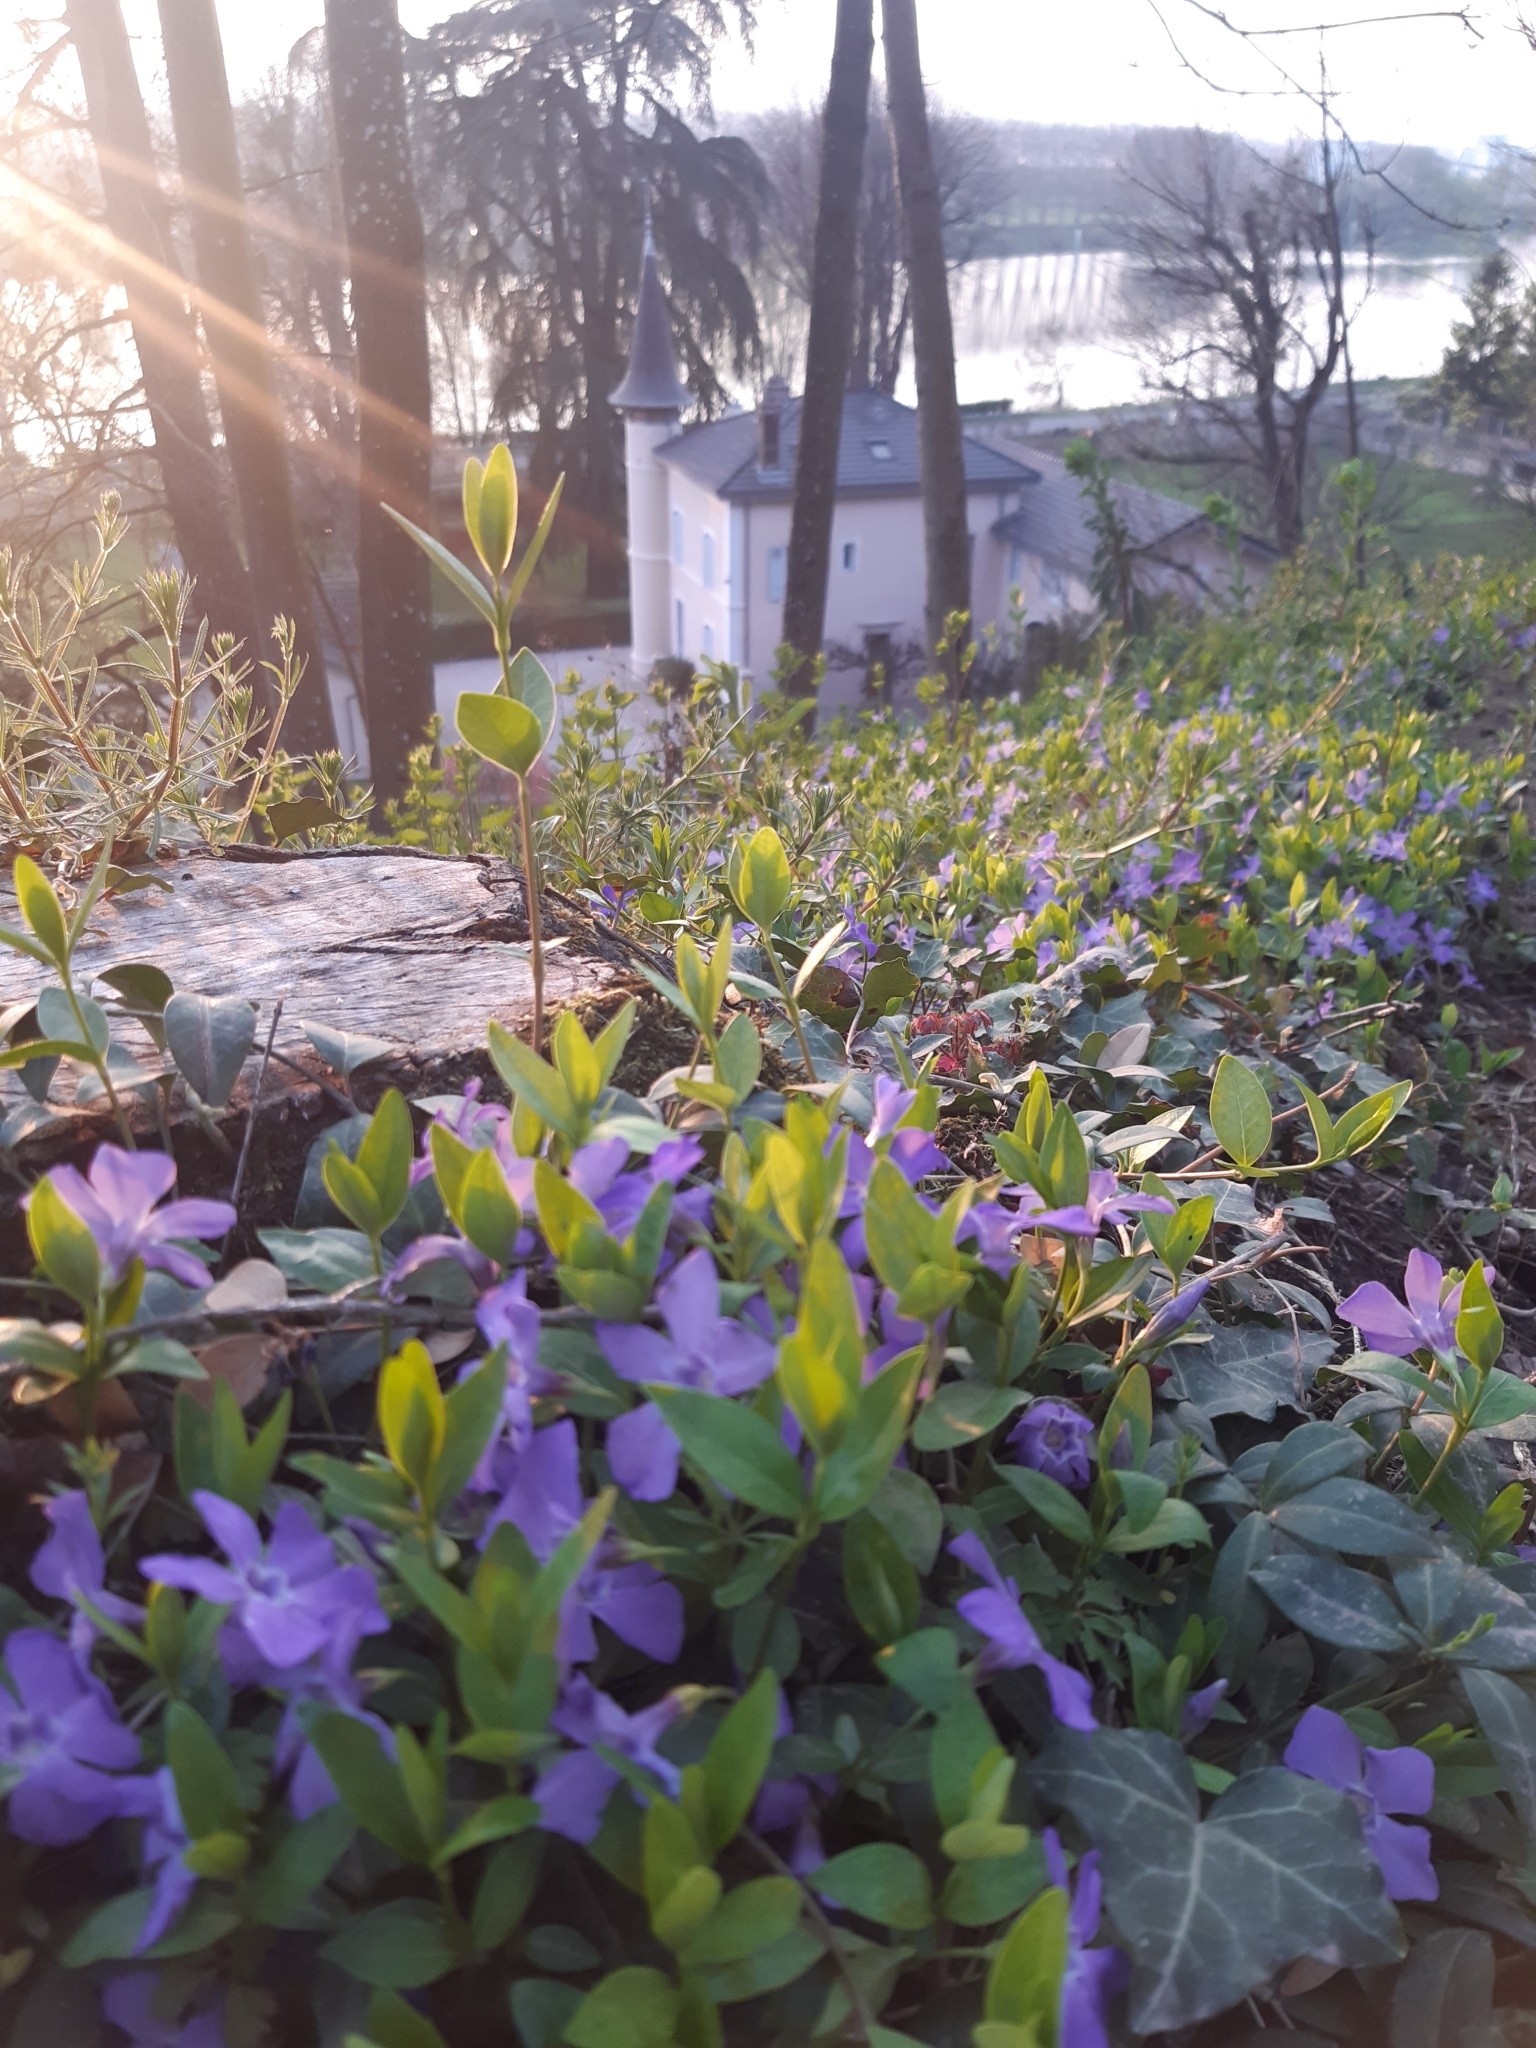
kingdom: Plantae
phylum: Tracheophyta
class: Magnoliopsida
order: Gentianales
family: Apocynaceae
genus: Vinca
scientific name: Vinca minor
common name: Lesser periwinkle
